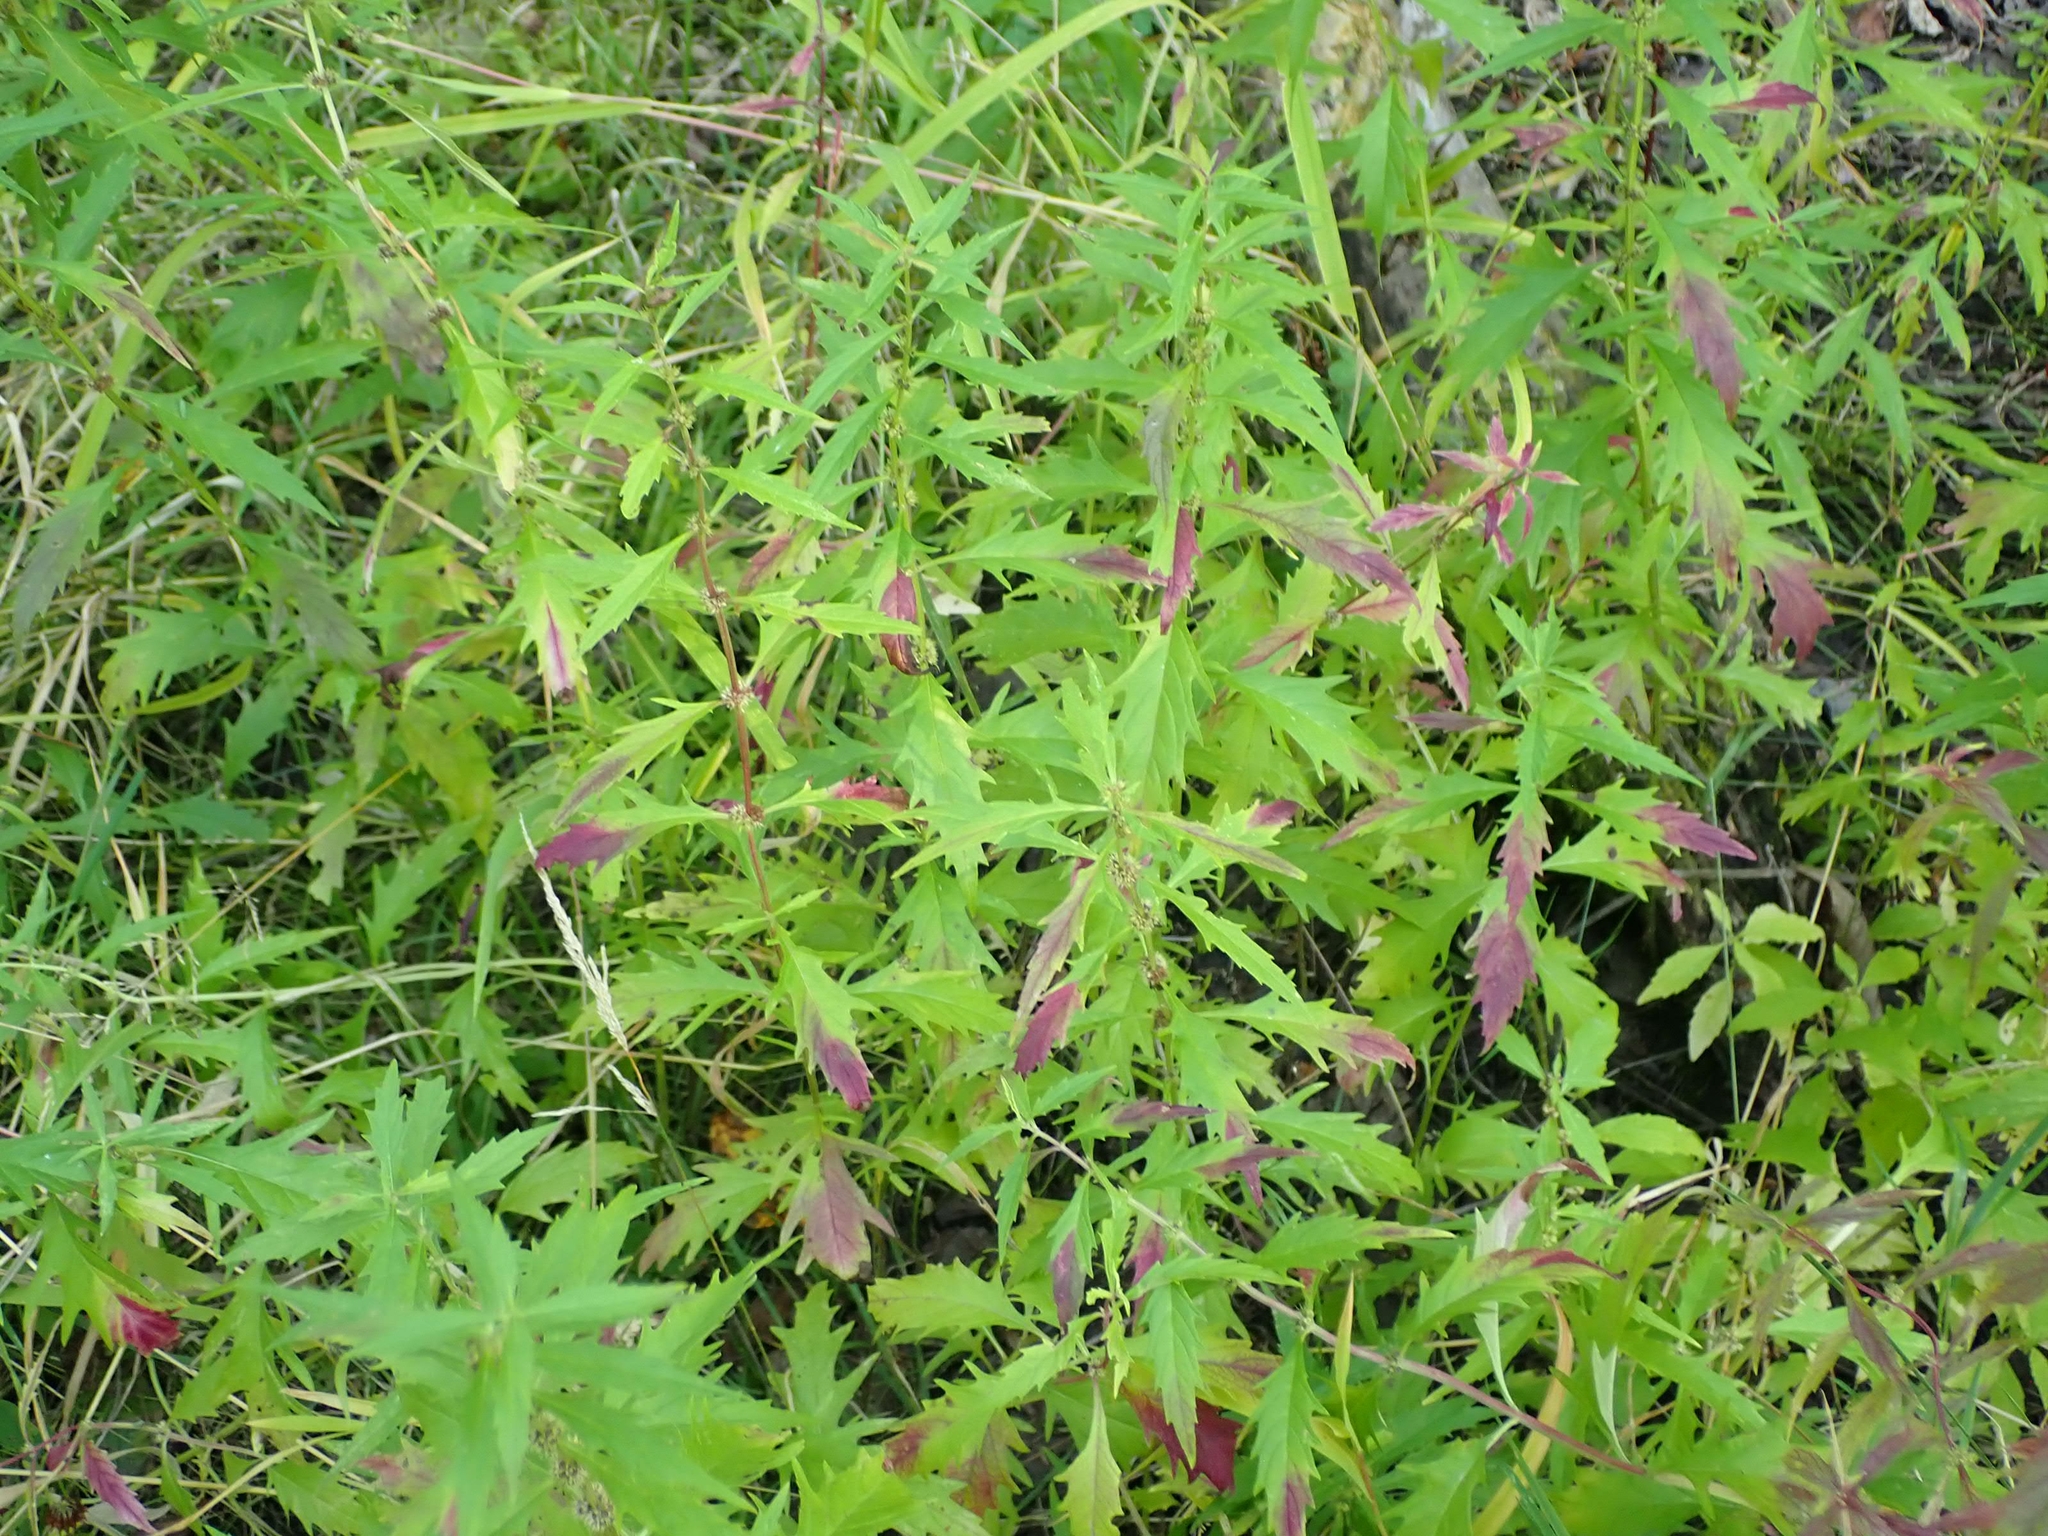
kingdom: Plantae
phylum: Tracheophyta
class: Magnoliopsida
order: Lamiales
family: Lamiaceae
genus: Lycopus
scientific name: Lycopus americanus
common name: American bugleweed
